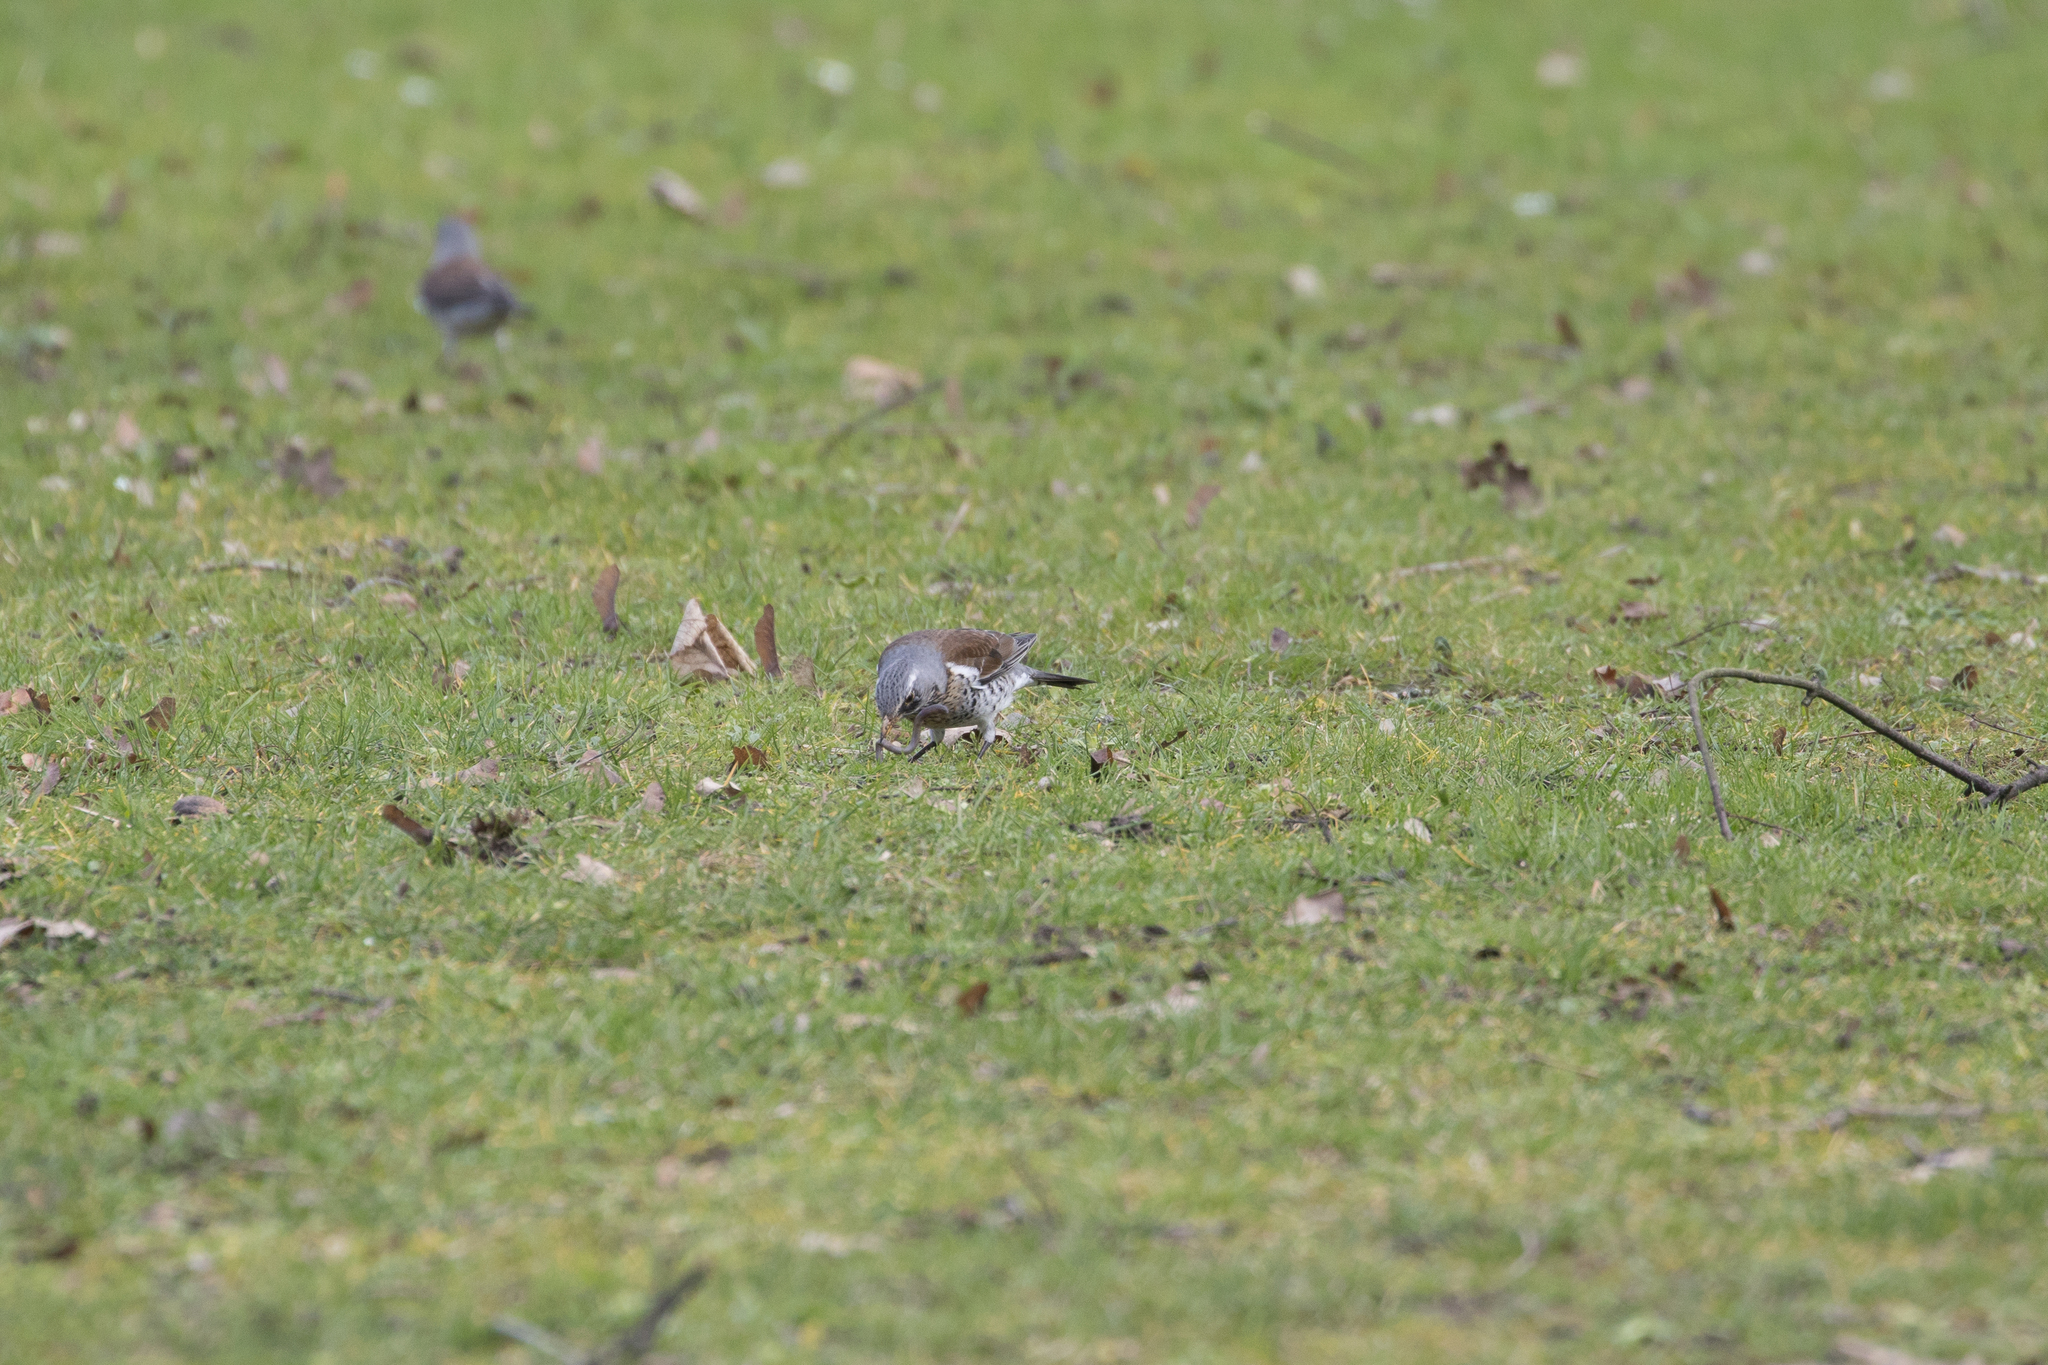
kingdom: Animalia
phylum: Chordata
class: Aves
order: Passeriformes
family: Turdidae
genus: Turdus
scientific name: Turdus pilaris
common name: Fieldfare
